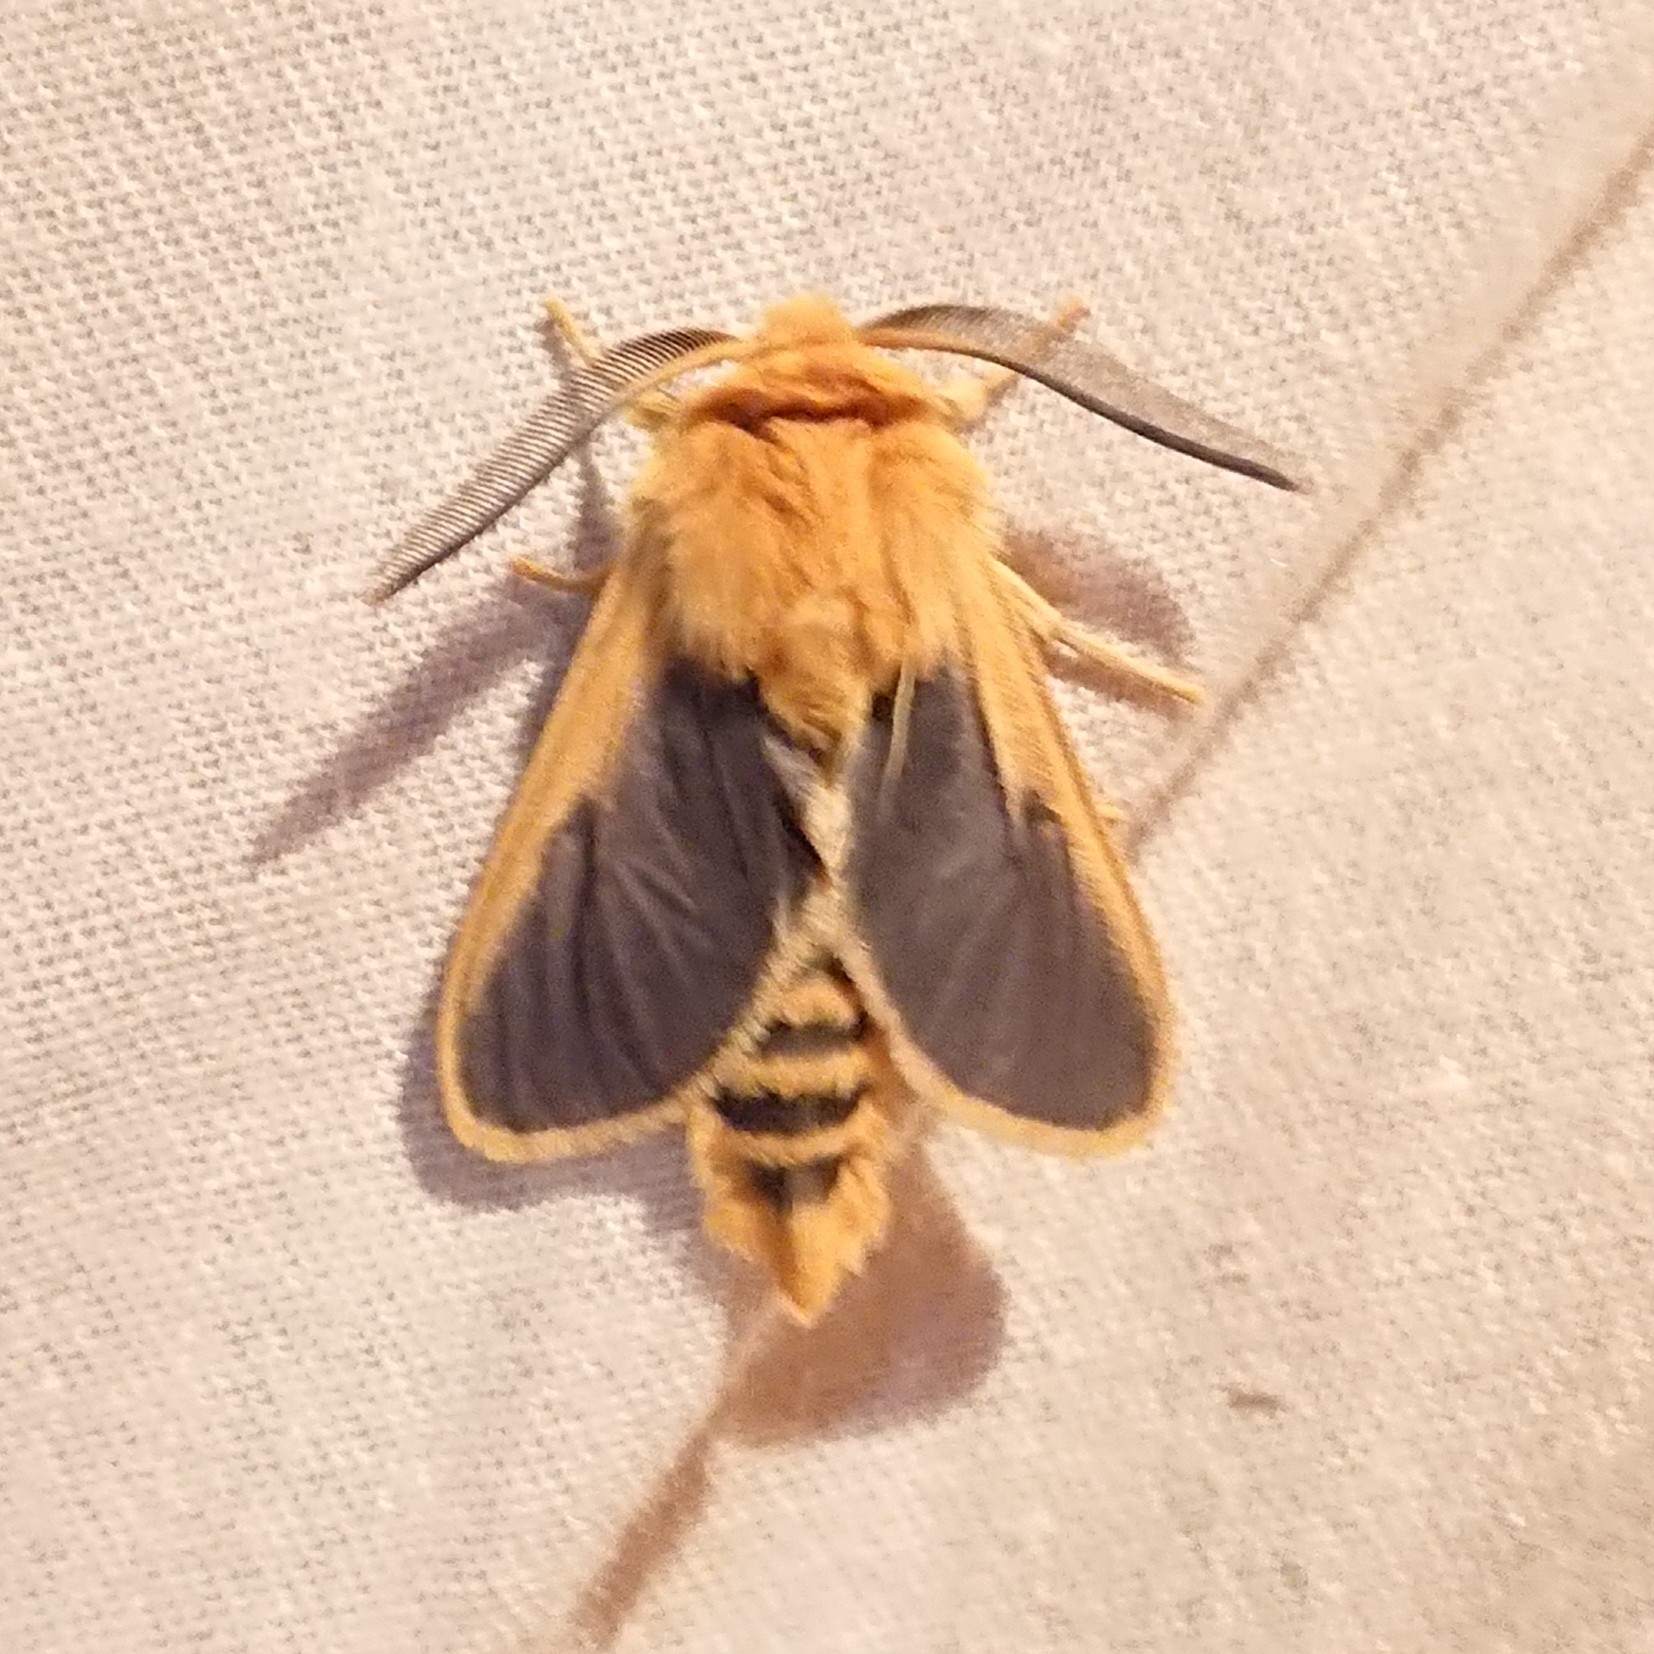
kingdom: Animalia
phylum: Arthropoda
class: Insecta
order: Lepidoptera
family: Erebidae
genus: Automolis
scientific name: Automolis meteus
